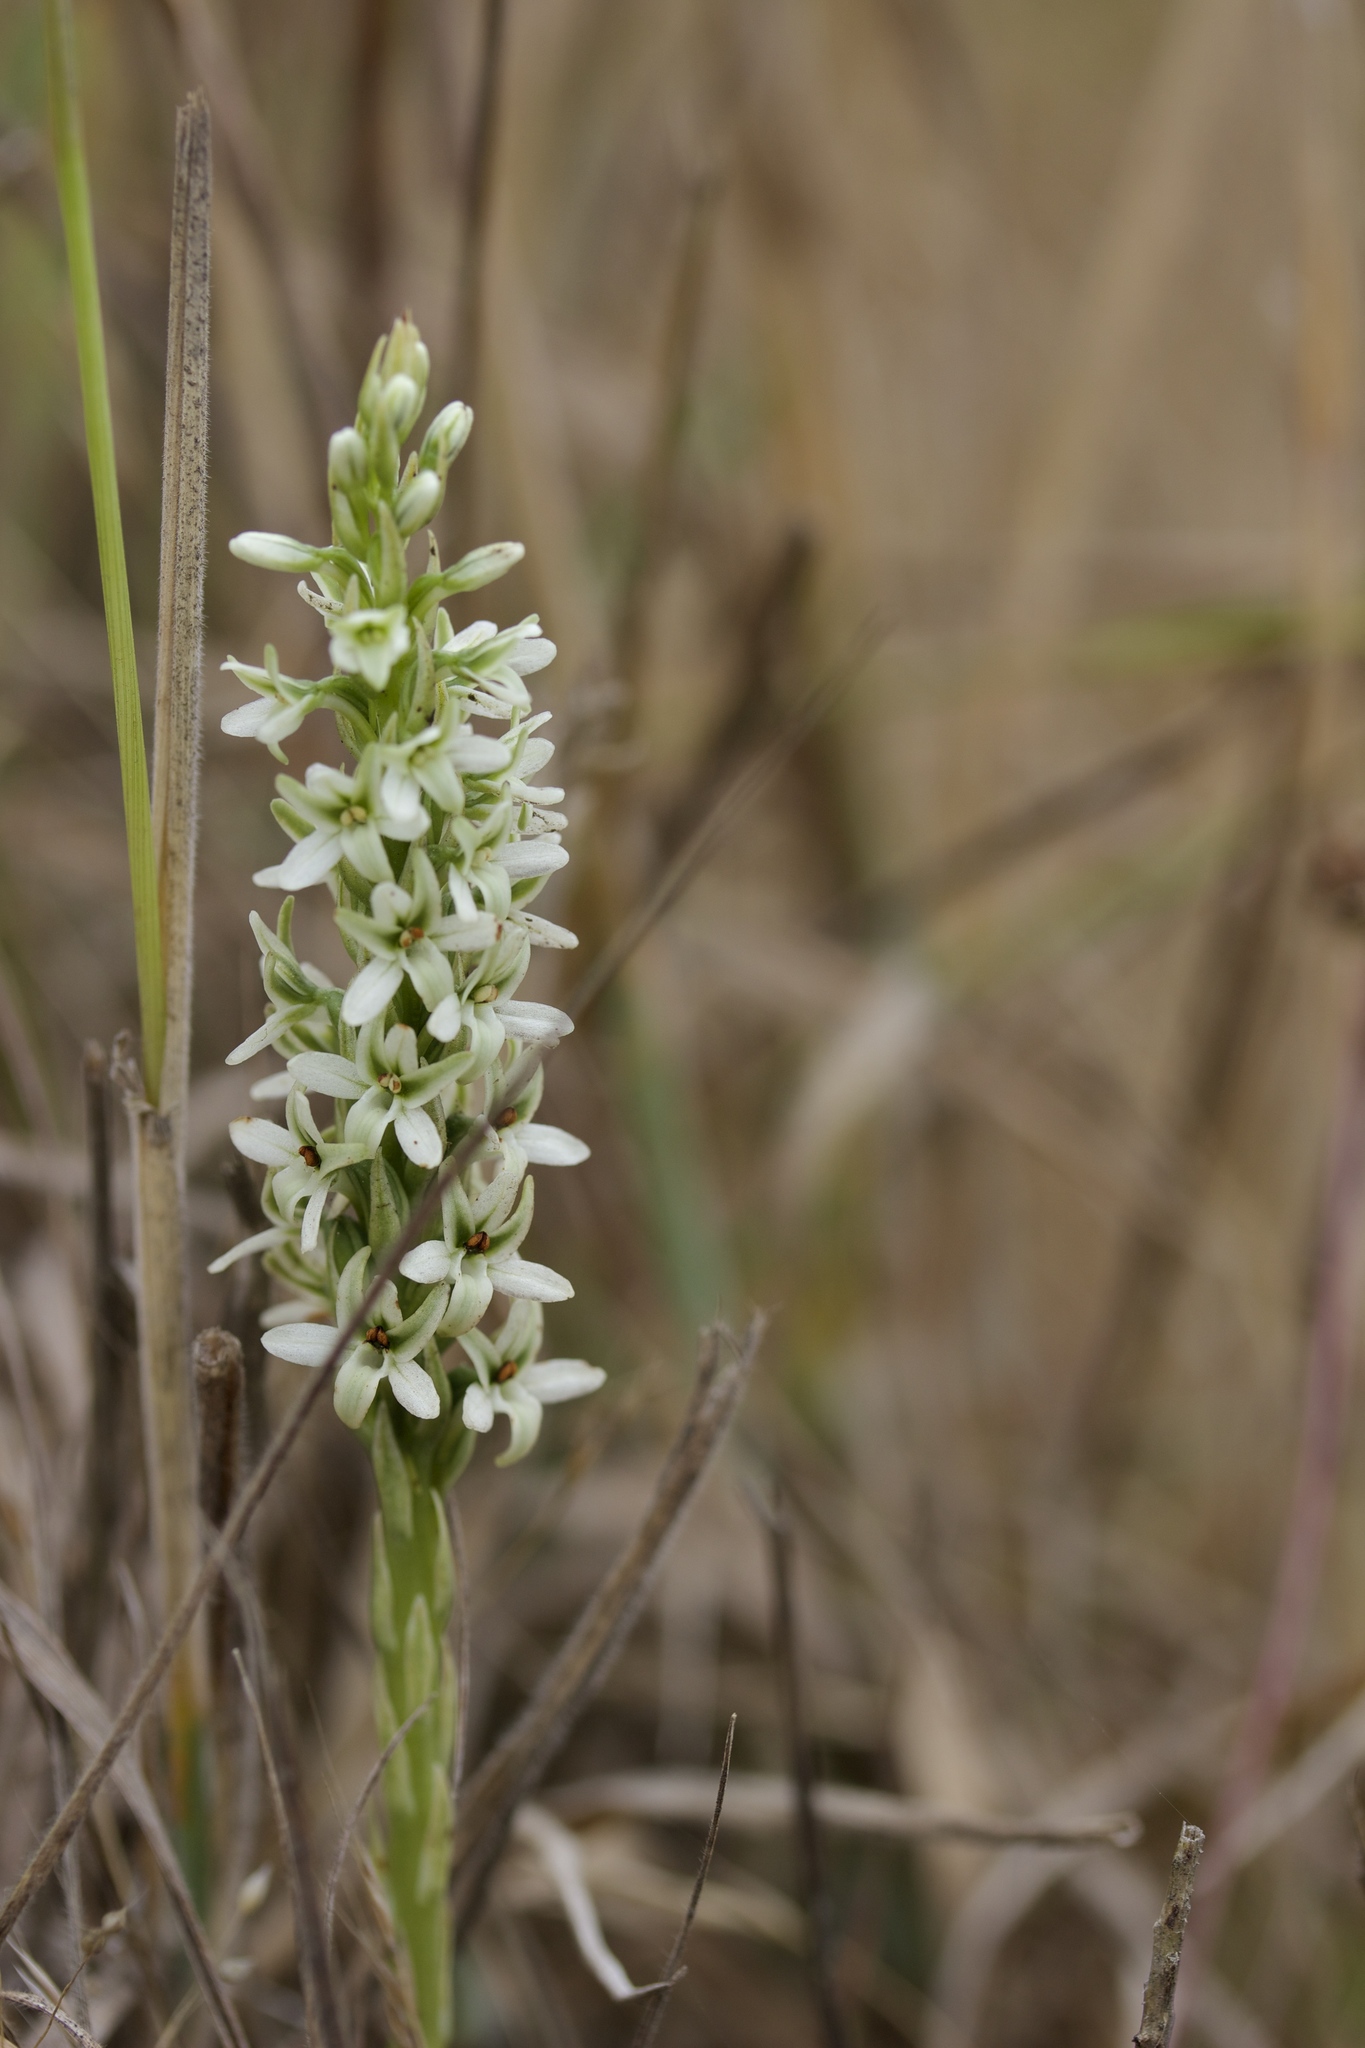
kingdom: Plantae
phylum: Tracheophyta
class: Liliopsida
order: Asparagales
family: Orchidaceae
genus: Platanthera
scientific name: Platanthera elegans
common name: Coast piperia
